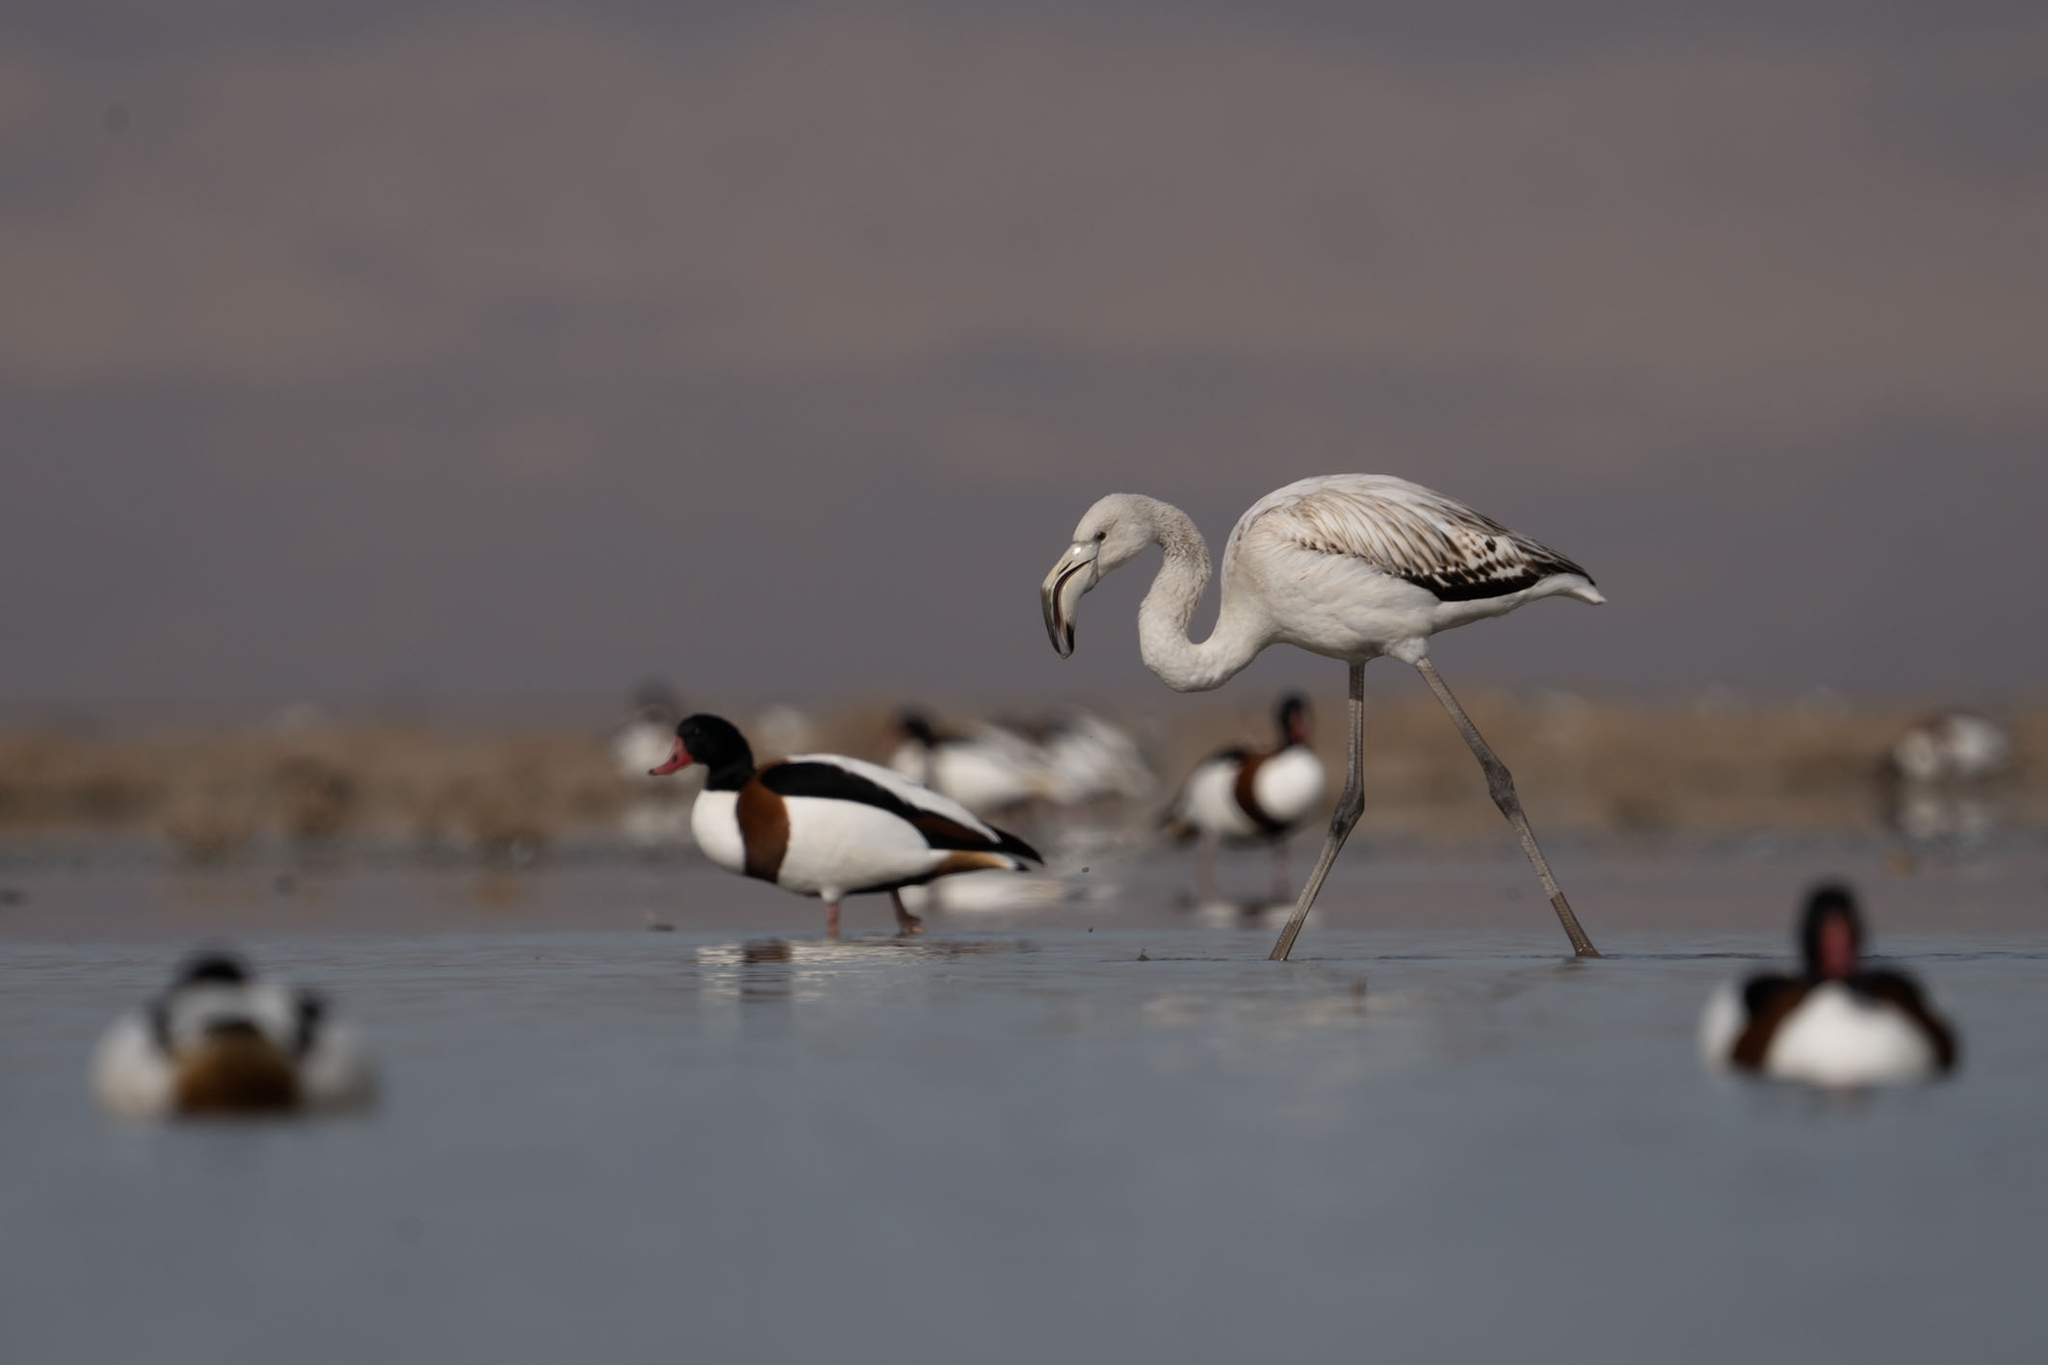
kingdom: Animalia
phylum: Chordata
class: Aves
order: Phoenicopteriformes
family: Phoenicopteridae
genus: Phoenicopterus
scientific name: Phoenicopterus roseus
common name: Greater flamingo
